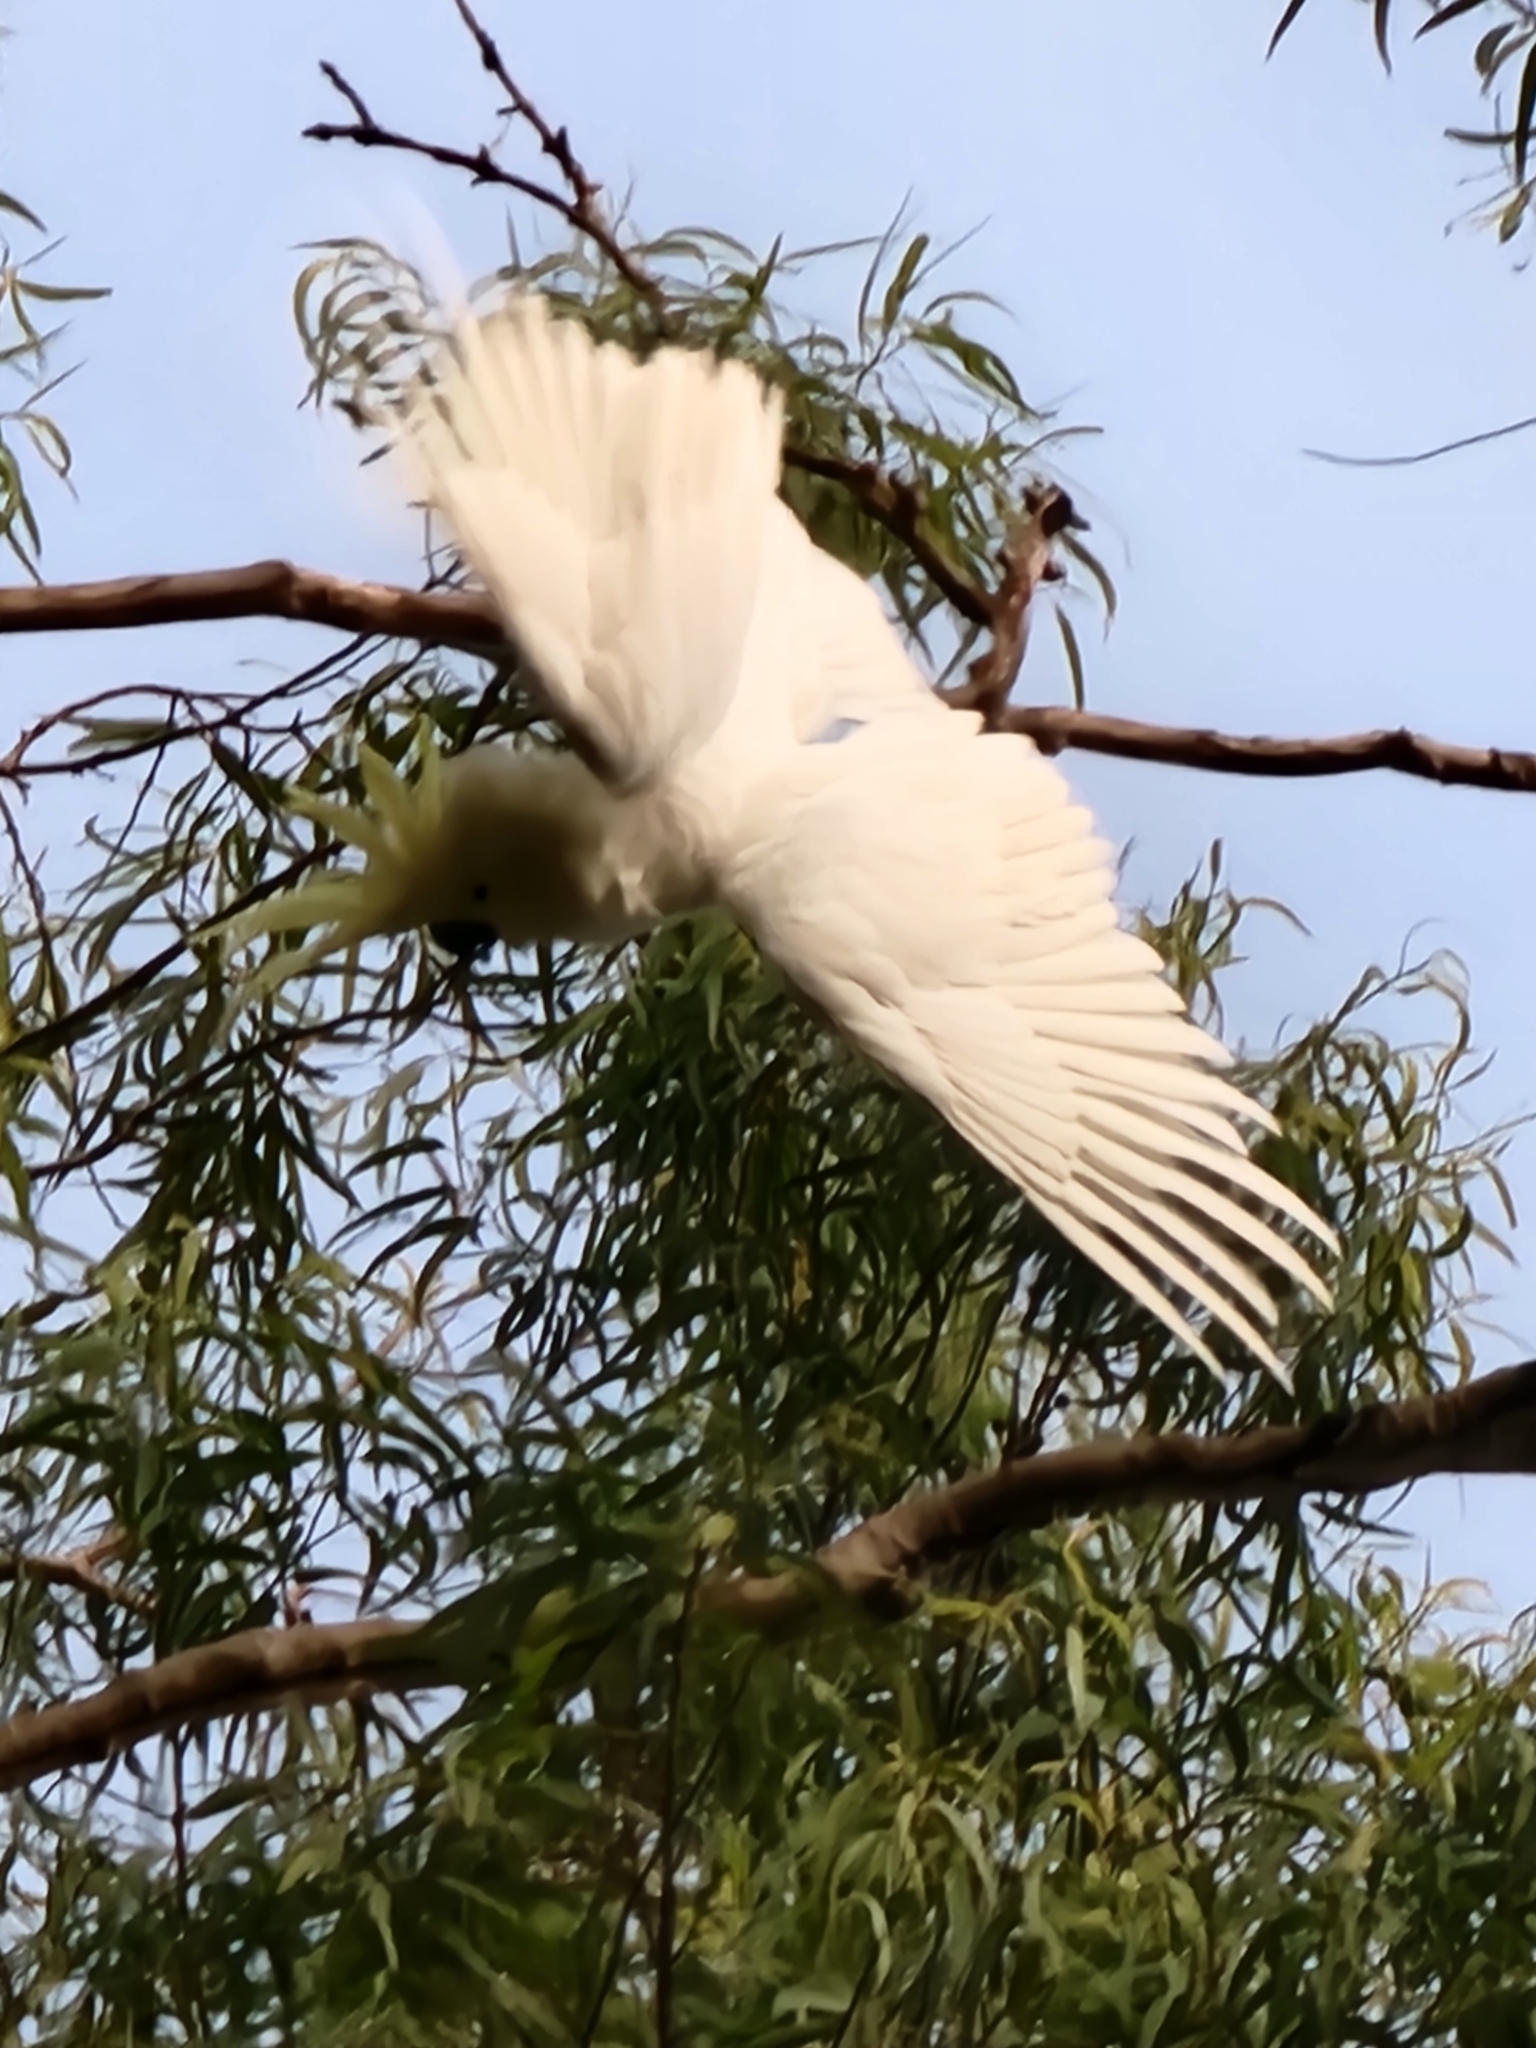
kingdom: Animalia
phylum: Chordata
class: Aves
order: Psittaciformes
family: Psittacidae
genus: Cacatua
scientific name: Cacatua galerita
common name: Sulphur-crested cockatoo
